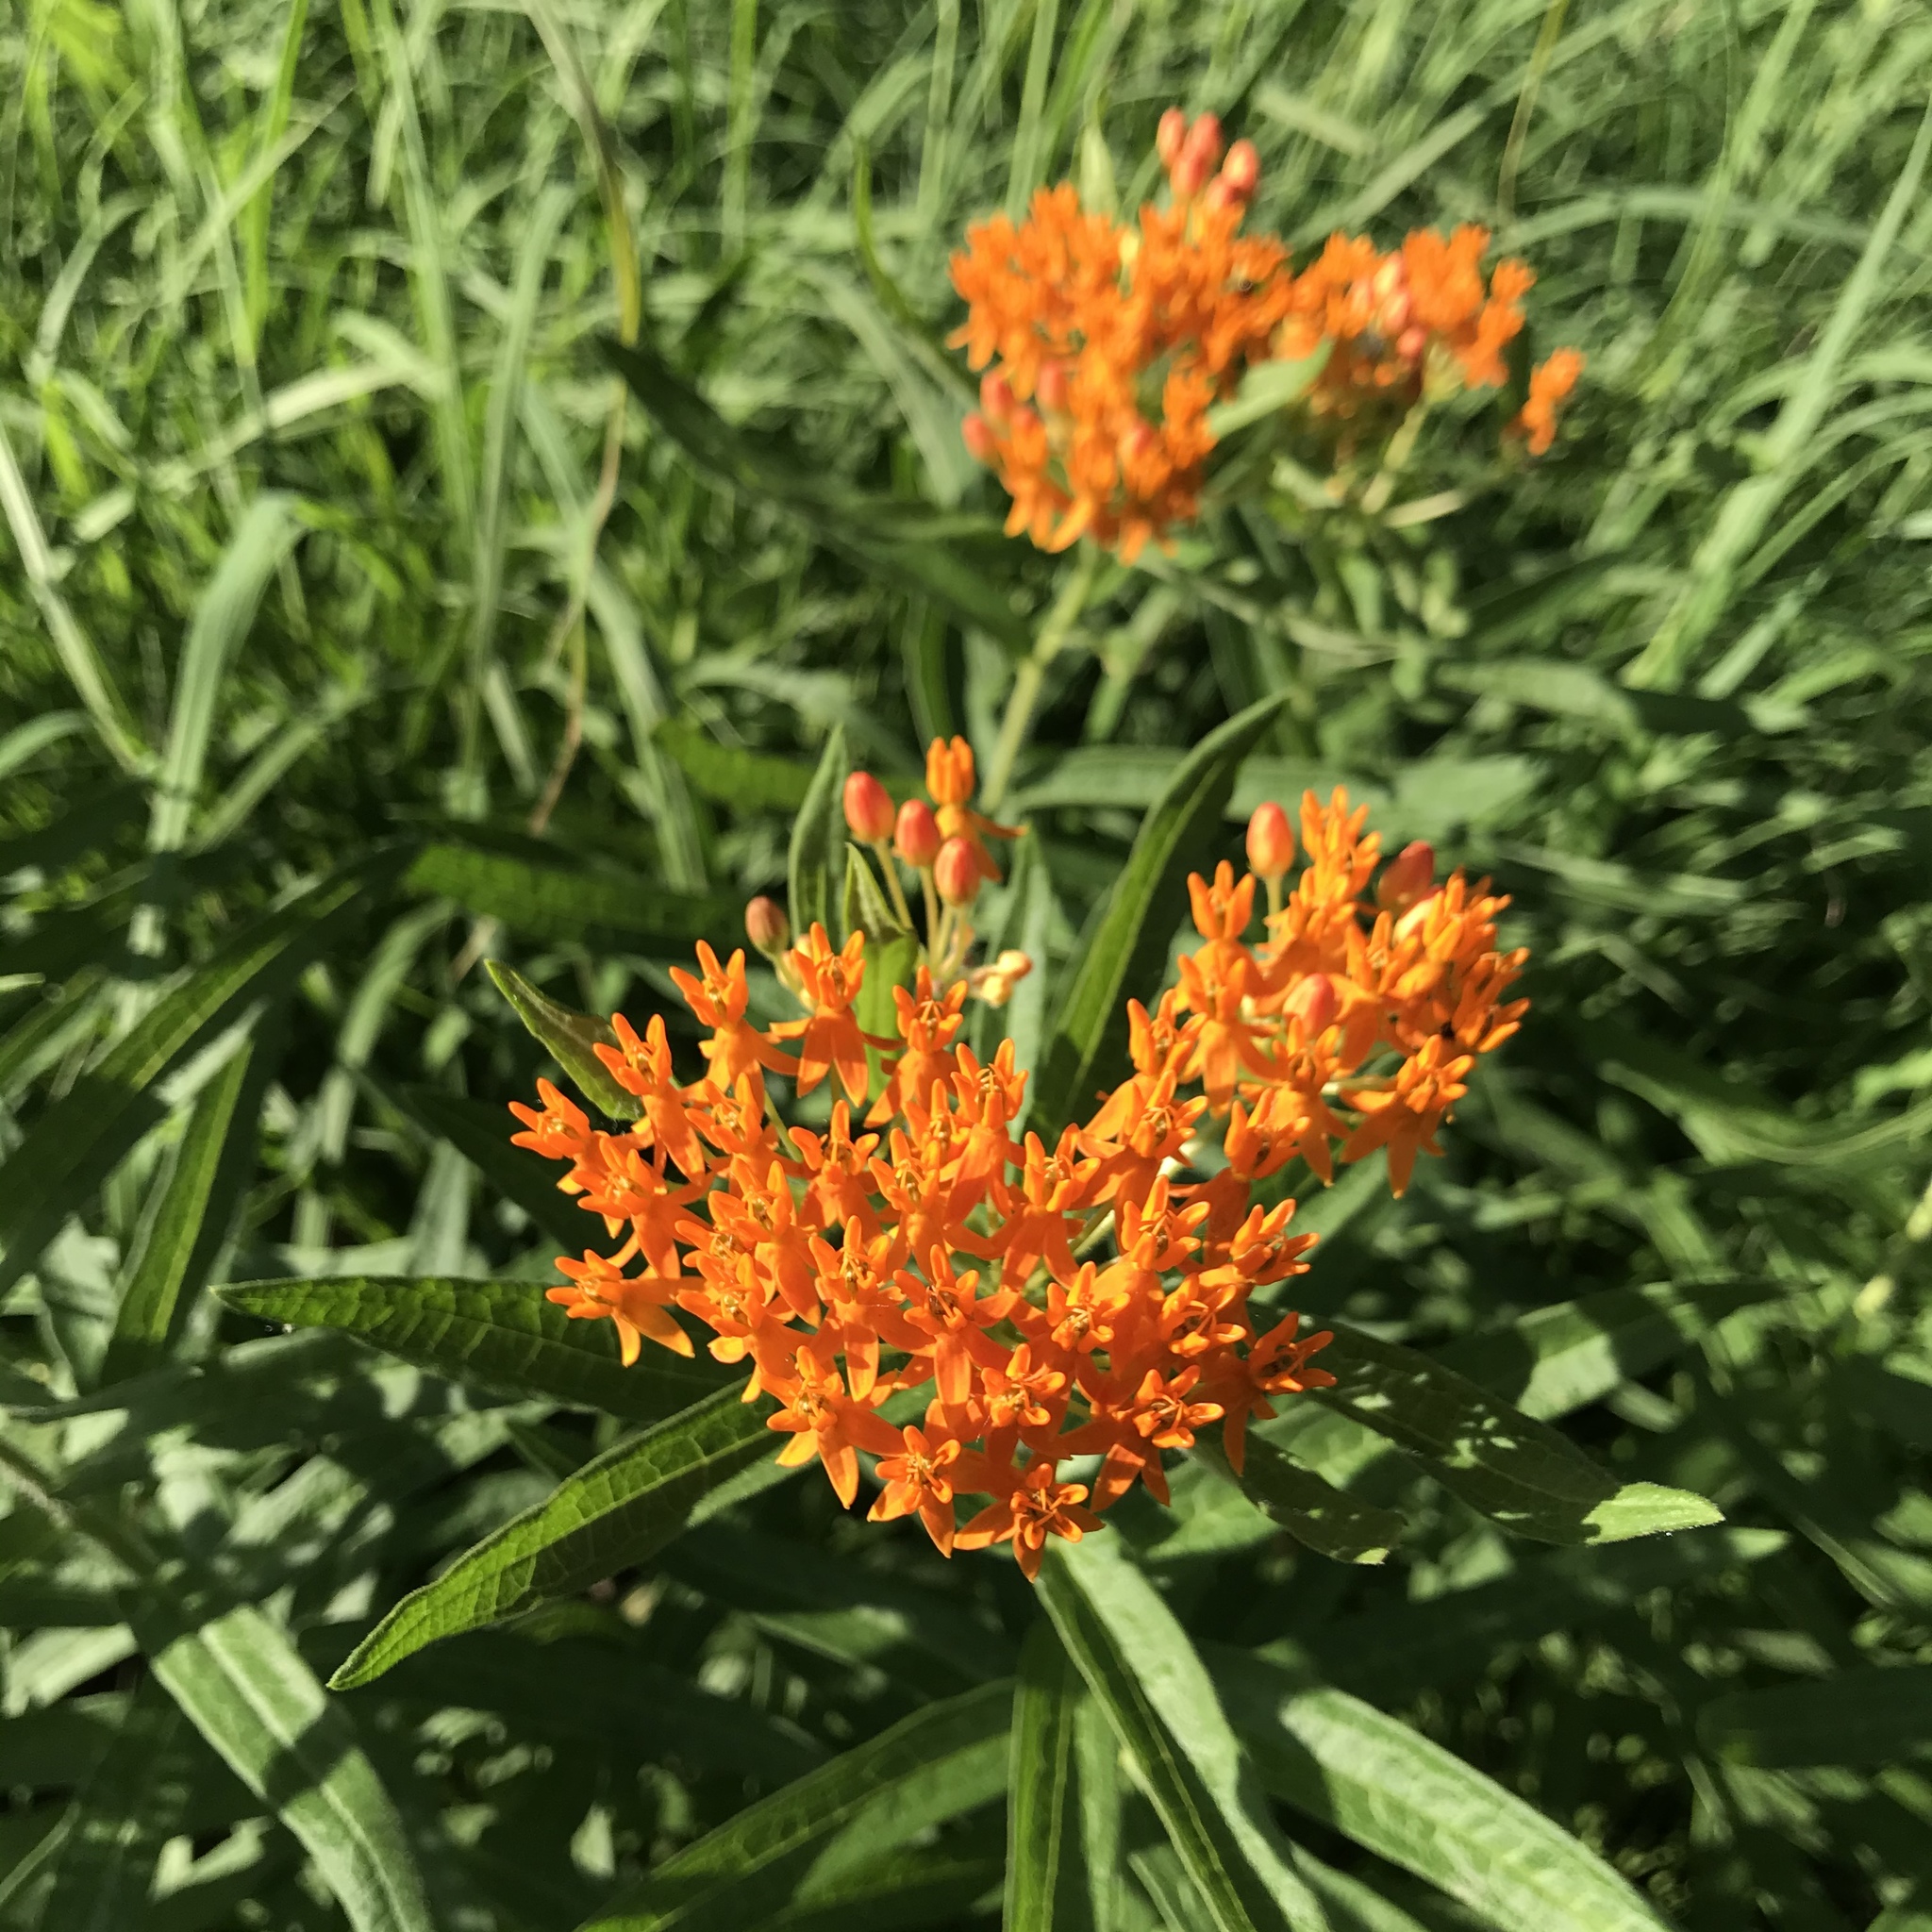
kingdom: Plantae
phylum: Tracheophyta
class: Magnoliopsida
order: Gentianales
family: Apocynaceae
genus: Asclepias
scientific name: Asclepias tuberosa
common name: Butterfly milkweed
